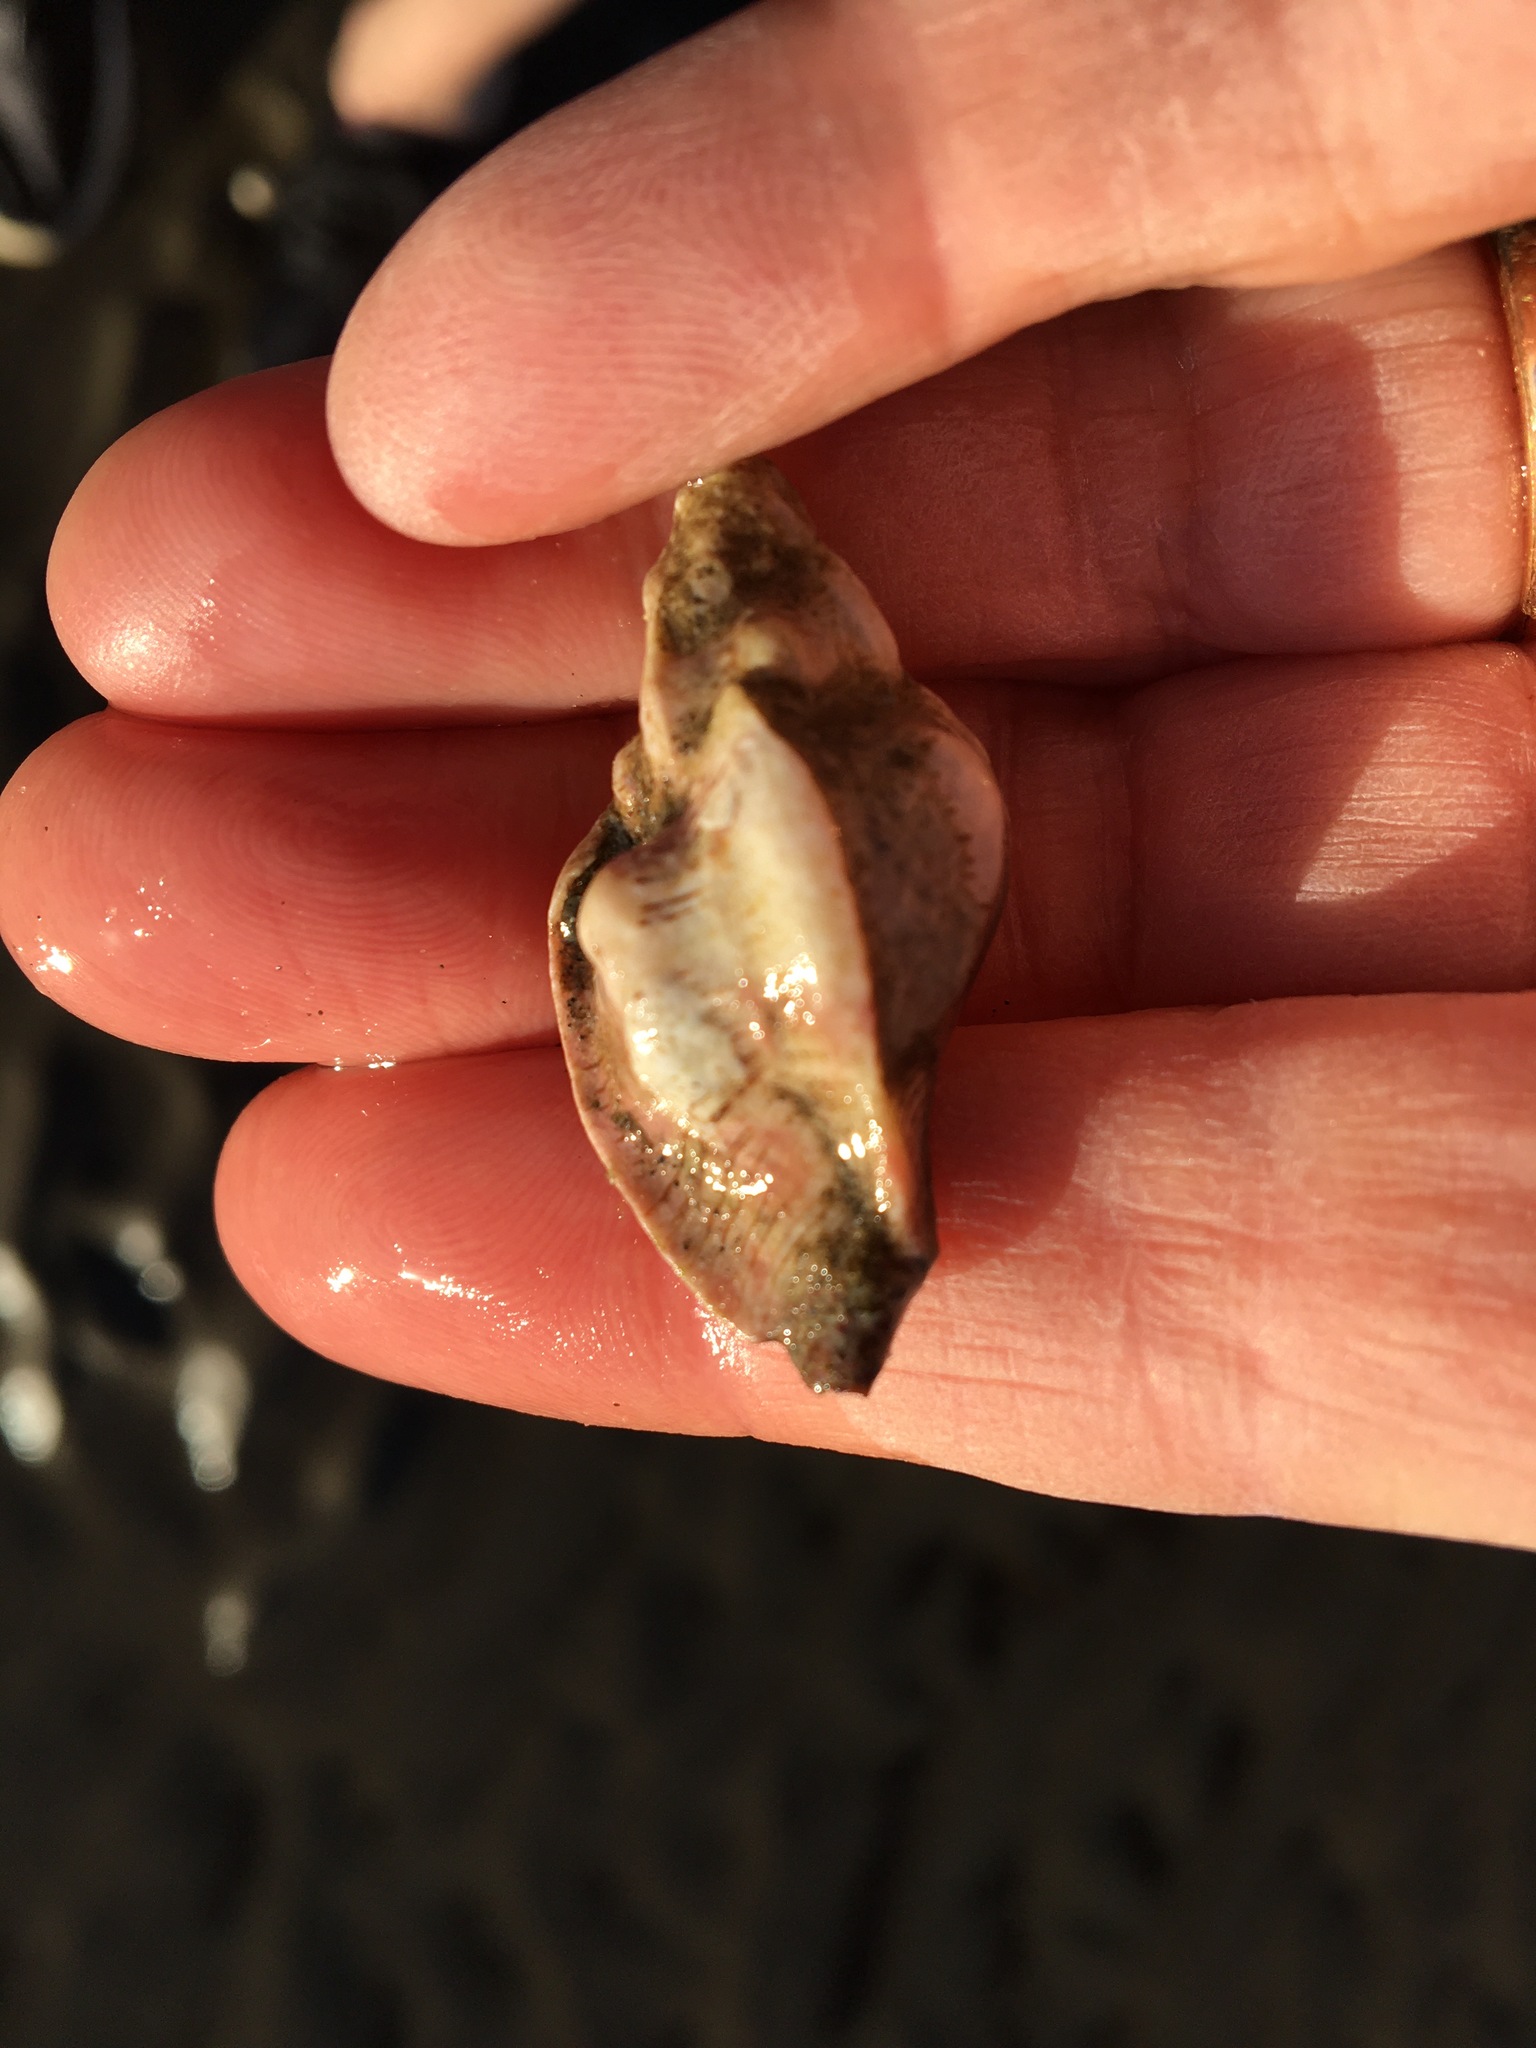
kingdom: Animalia
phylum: Mollusca
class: Gastropoda
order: Neogastropoda
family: Muricidae
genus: Pteropurpura
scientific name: Pteropurpura festiva
